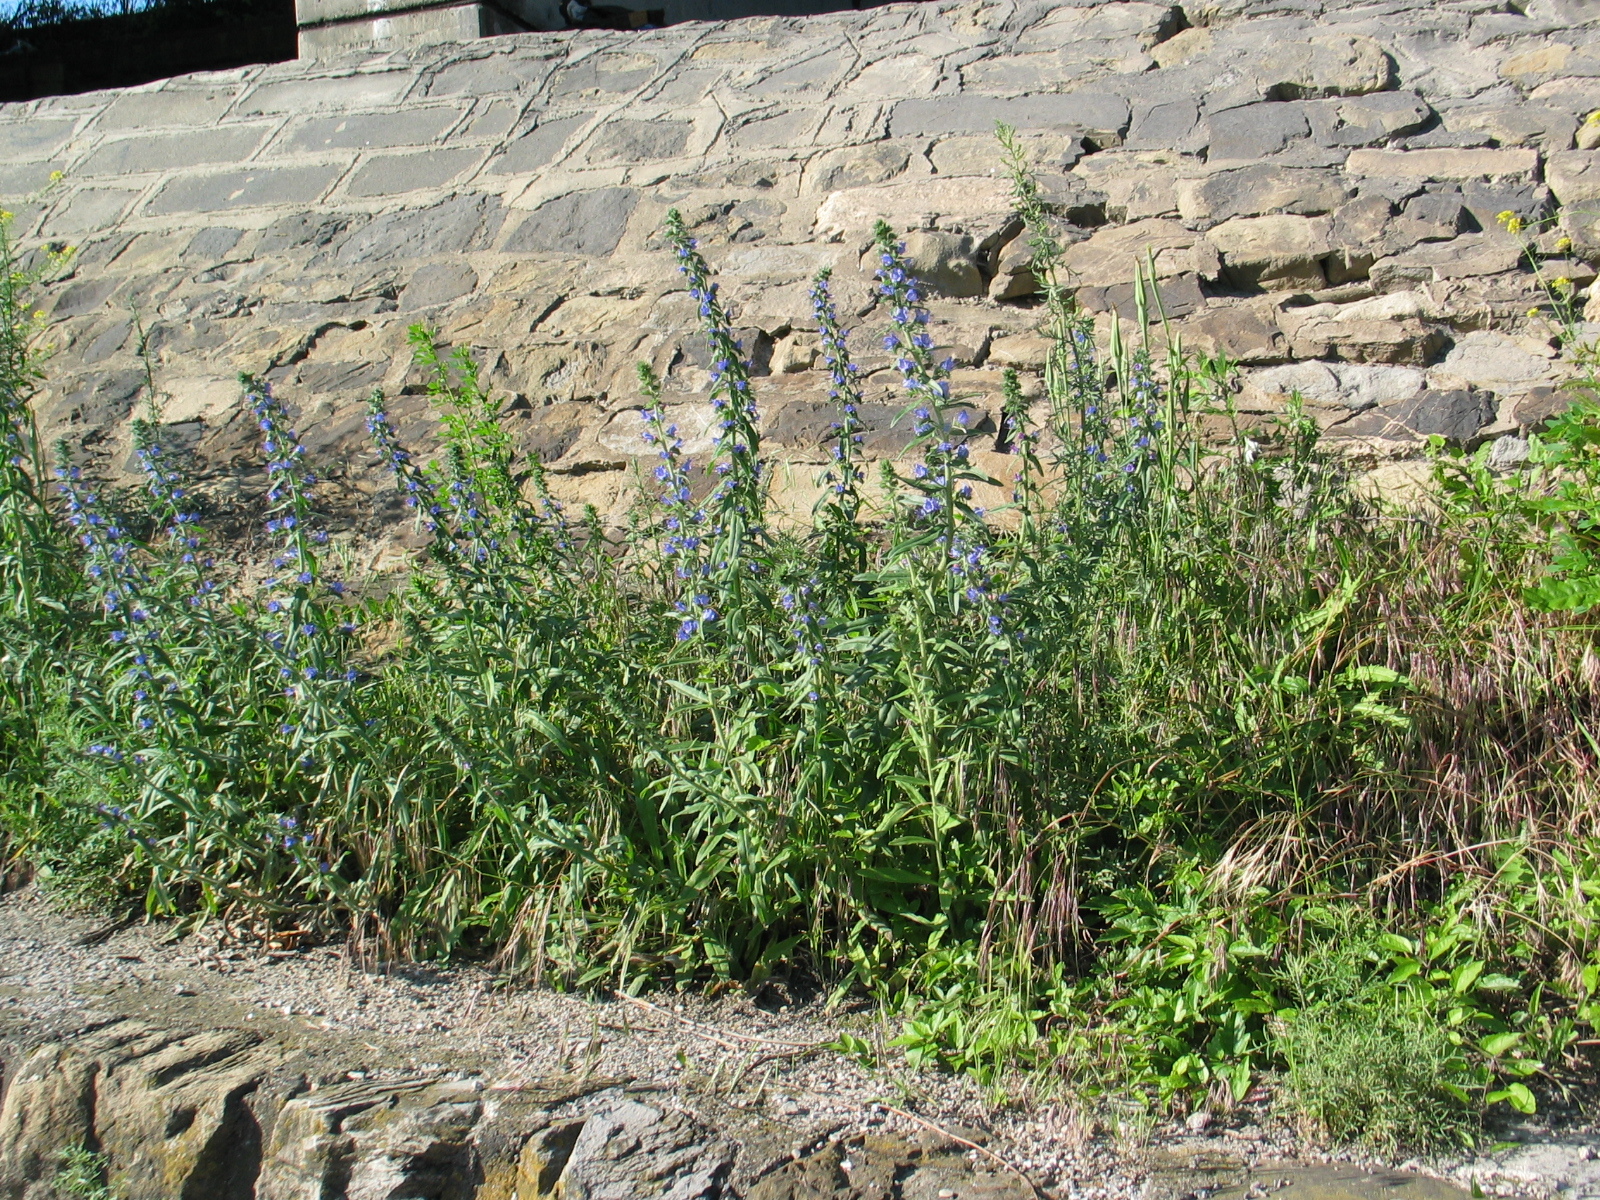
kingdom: Plantae
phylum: Tracheophyta
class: Magnoliopsida
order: Boraginales
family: Boraginaceae
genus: Echium
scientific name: Echium vulgare
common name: Common viper's bugloss
